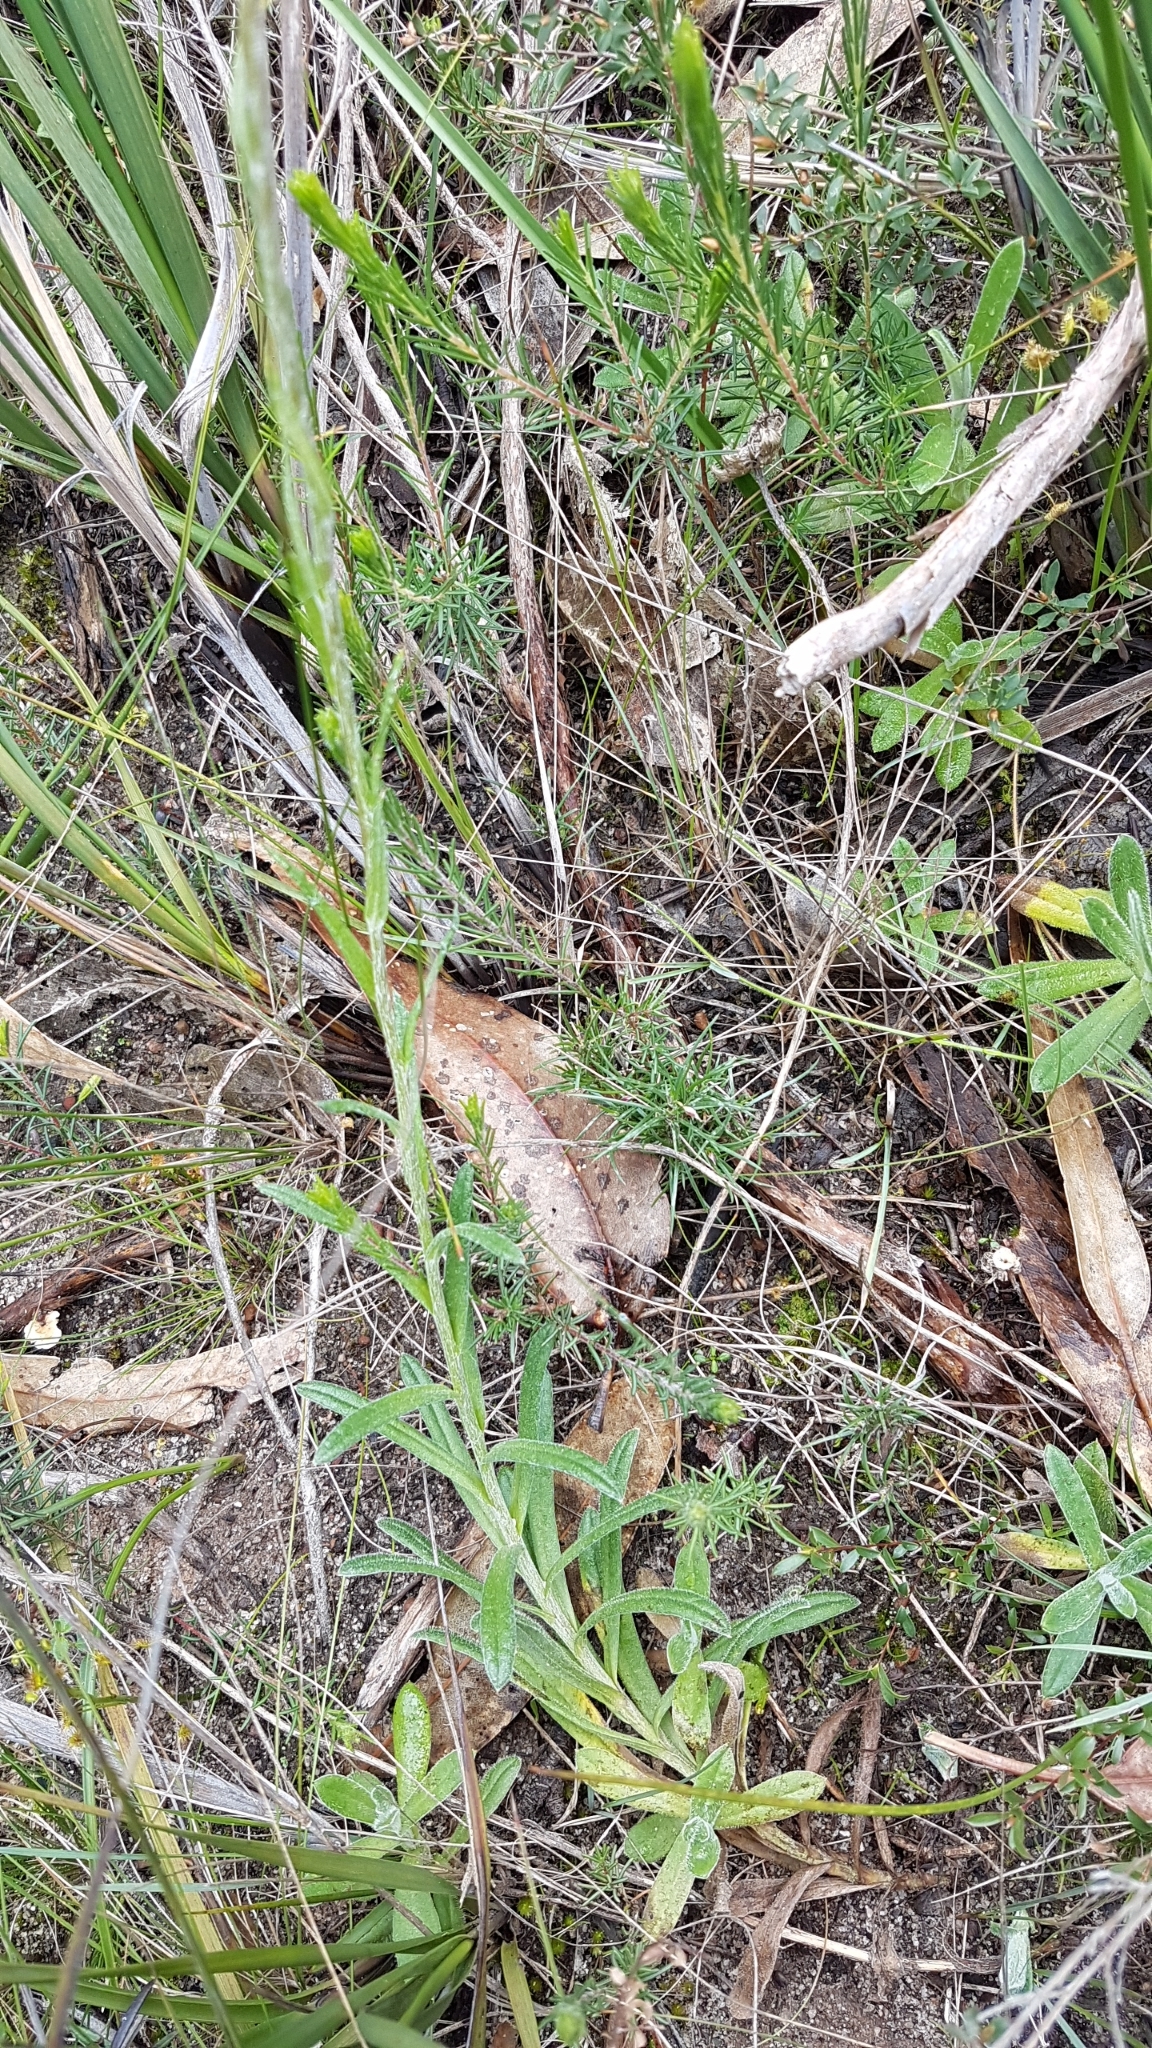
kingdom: Plantae
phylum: Tracheophyta
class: Magnoliopsida
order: Asterales
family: Asteraceae
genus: Coronidium
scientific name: Coronidium scorpioides
